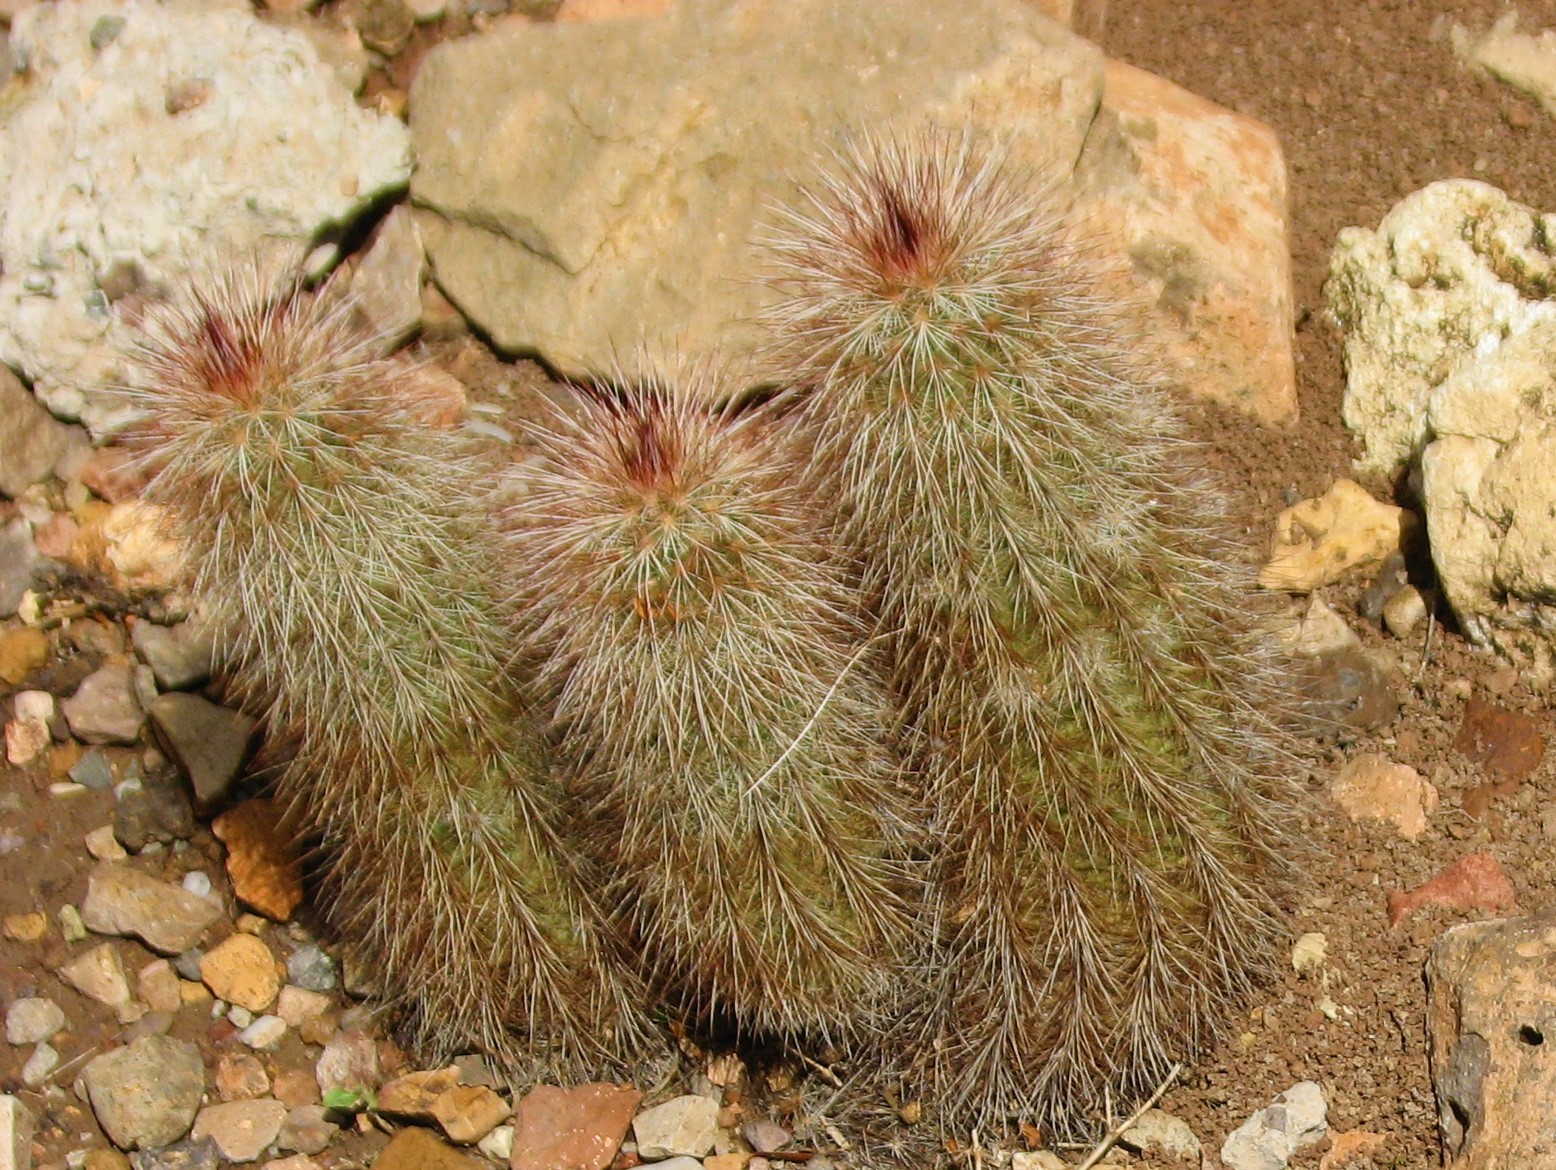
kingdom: Plantae
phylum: Tracheophyta
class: Magnoliopsida
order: Caryophyllales
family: Cactaceae
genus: Echinocereus
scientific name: Echinocereus russanthus
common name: Brownspine hedgehog cactus
